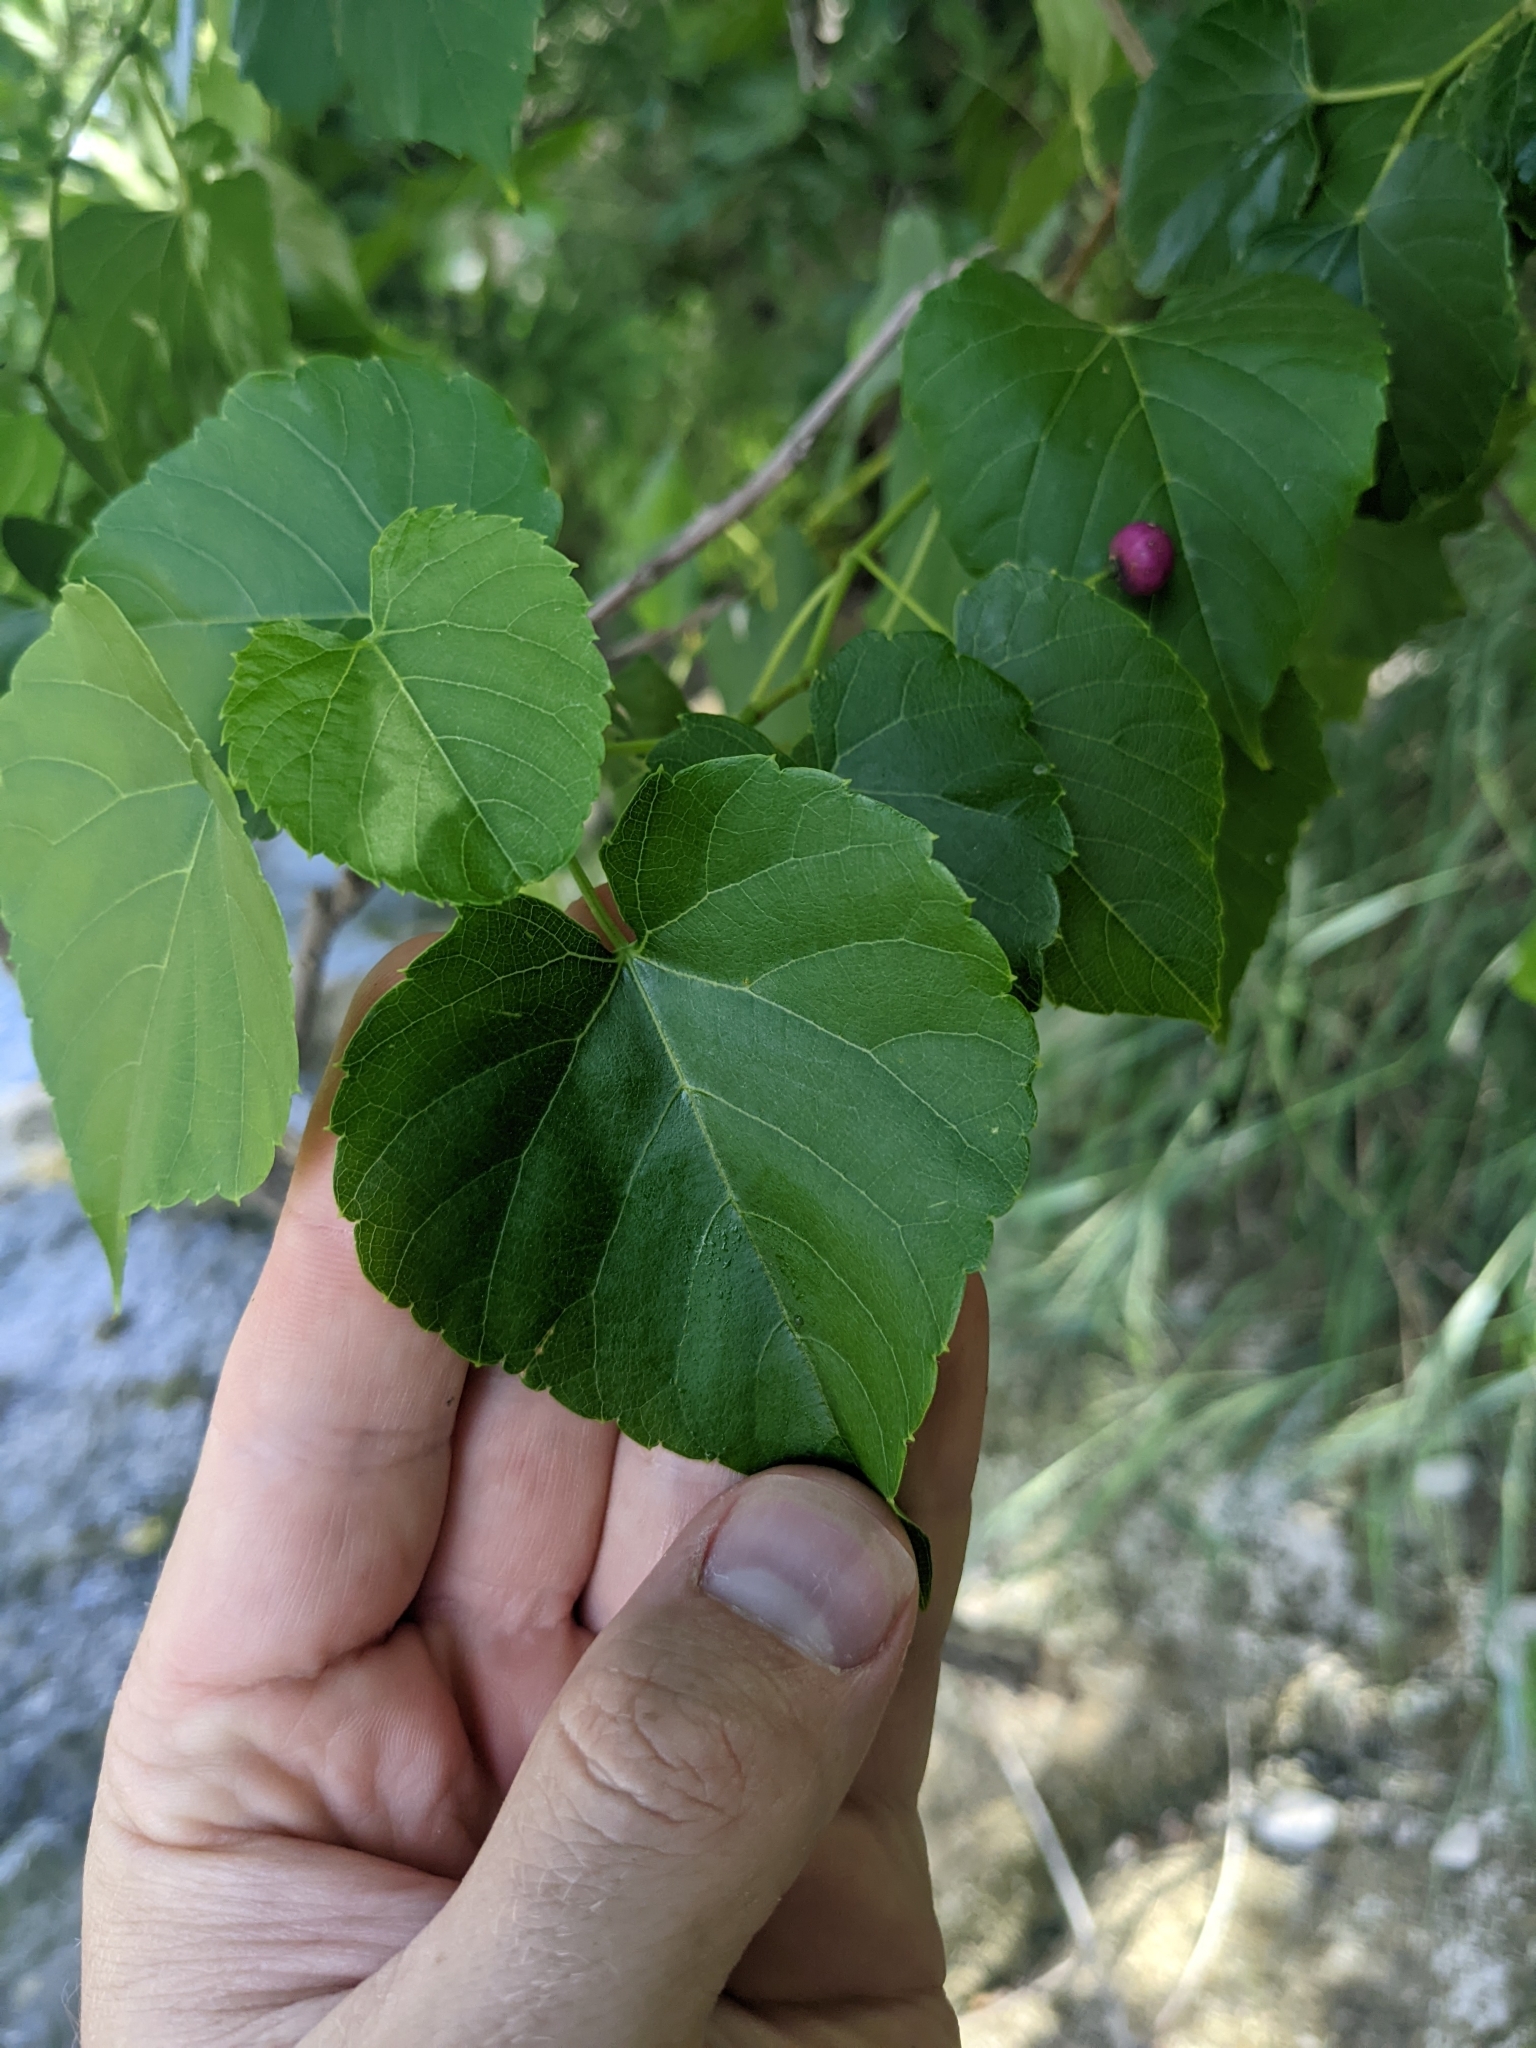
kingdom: Plantae
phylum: Tracheophyta
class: Magnoliopsida
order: Vitales
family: Vitaceae
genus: Ampelopsis
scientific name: Ampelopsis cordata
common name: Heart-leaf ampelopsis
